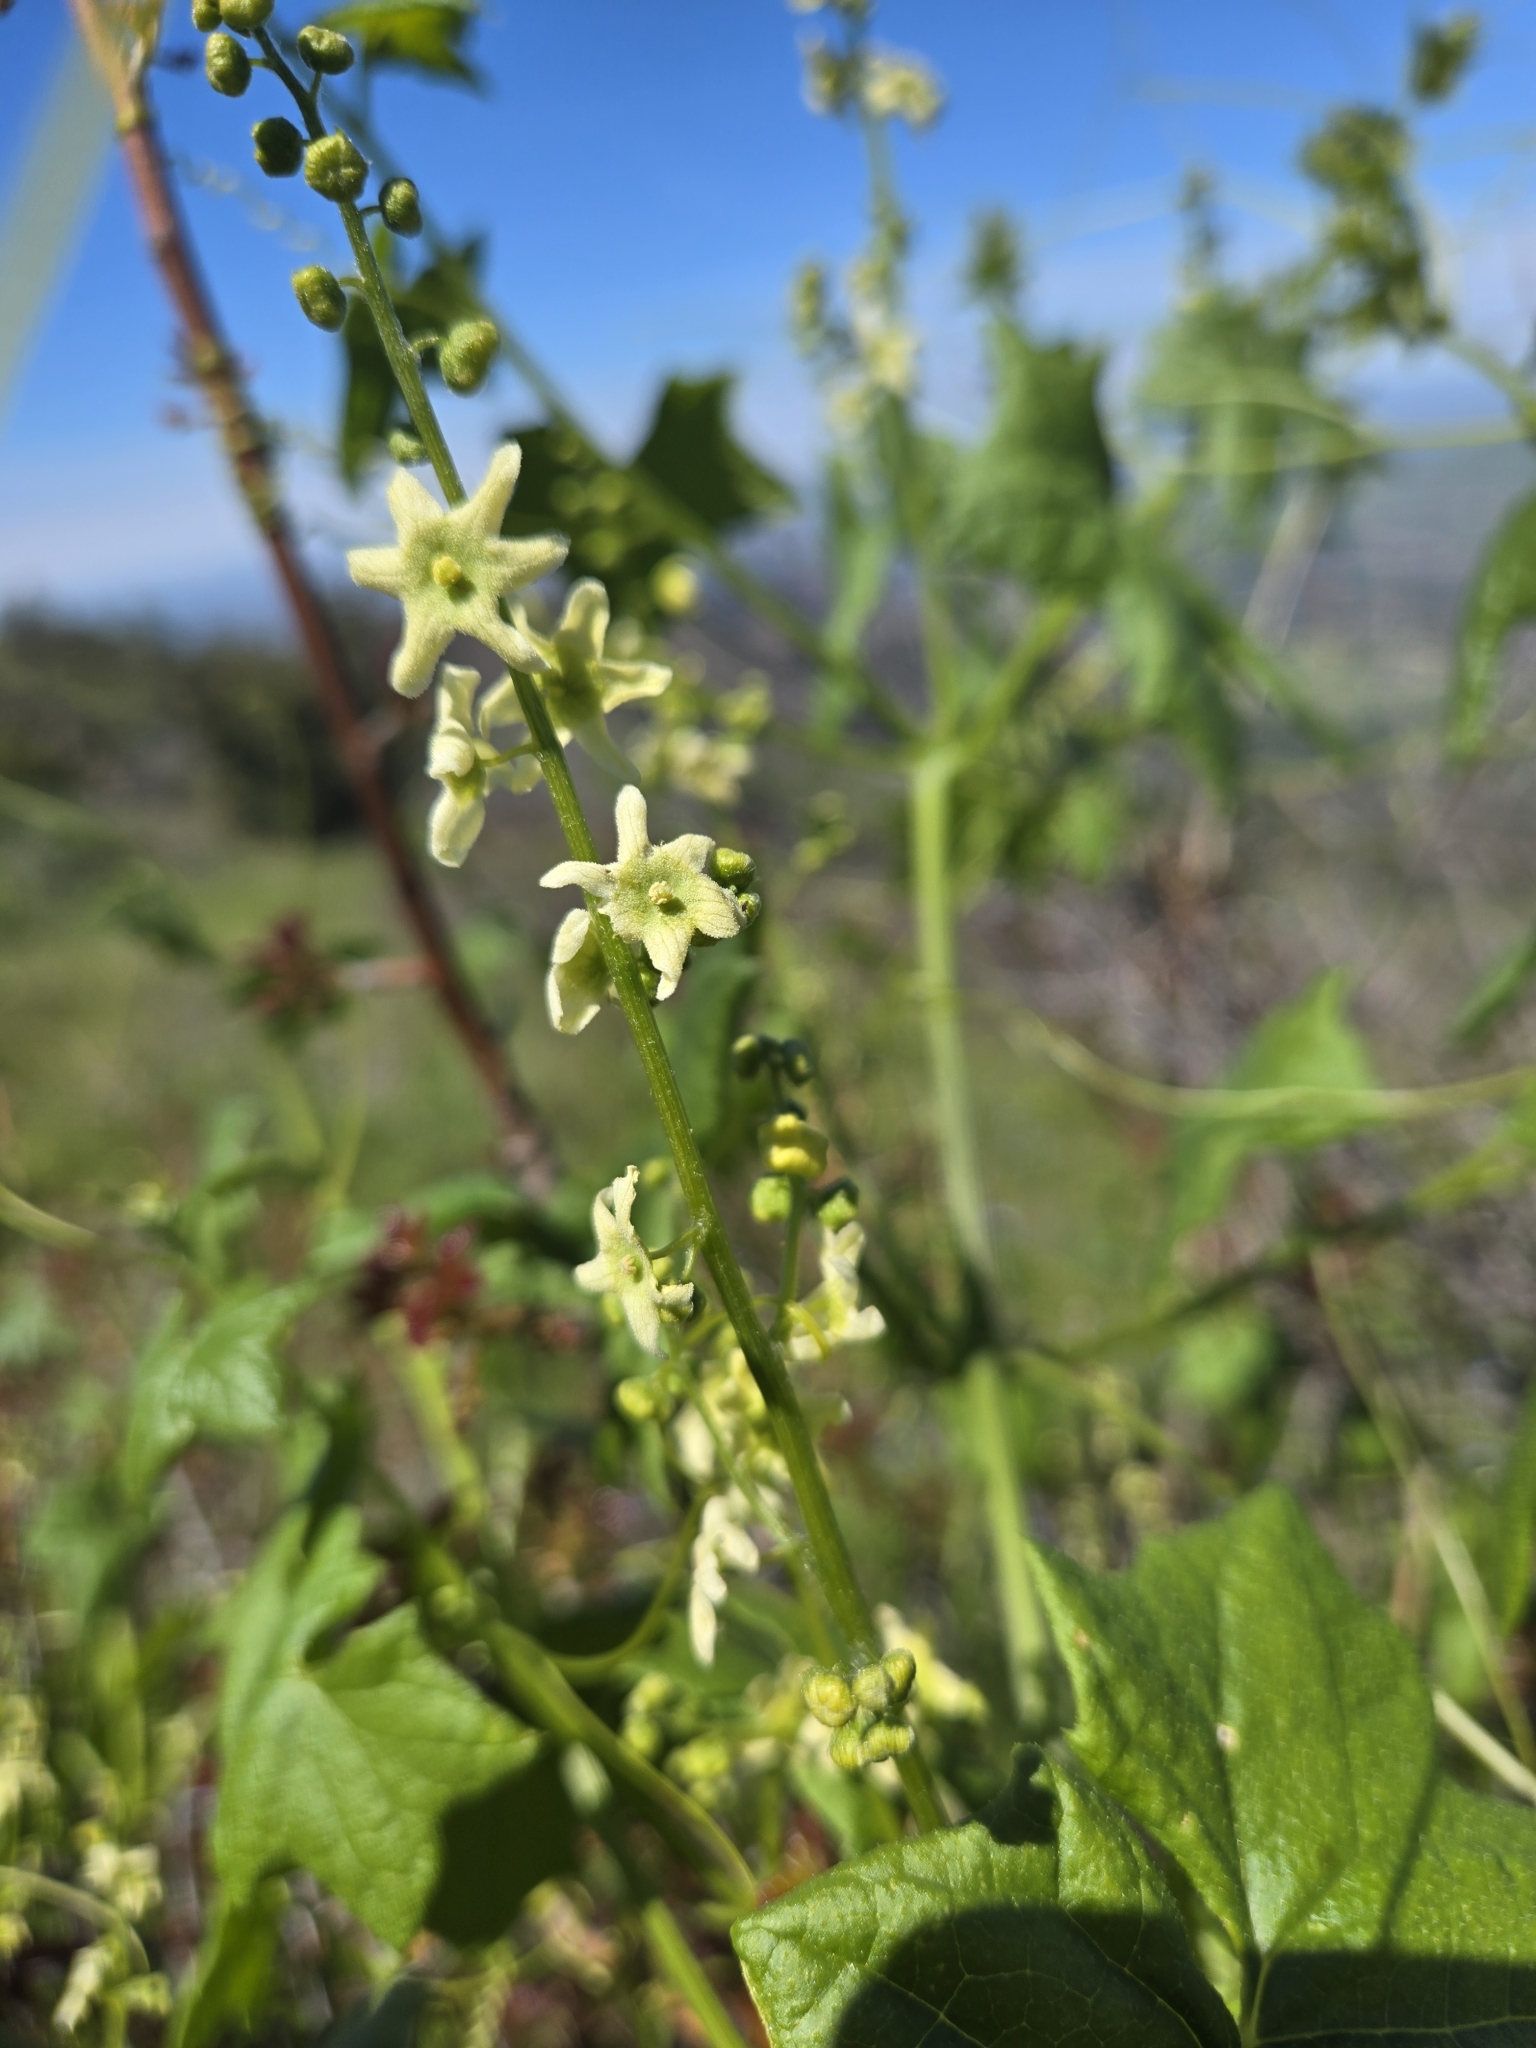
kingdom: Plantae
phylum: Tracheophyta
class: Magnoliopsida
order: Cucurbitales
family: Cucurbitaceae
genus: Marah
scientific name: Marah fabacea
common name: California manroot
